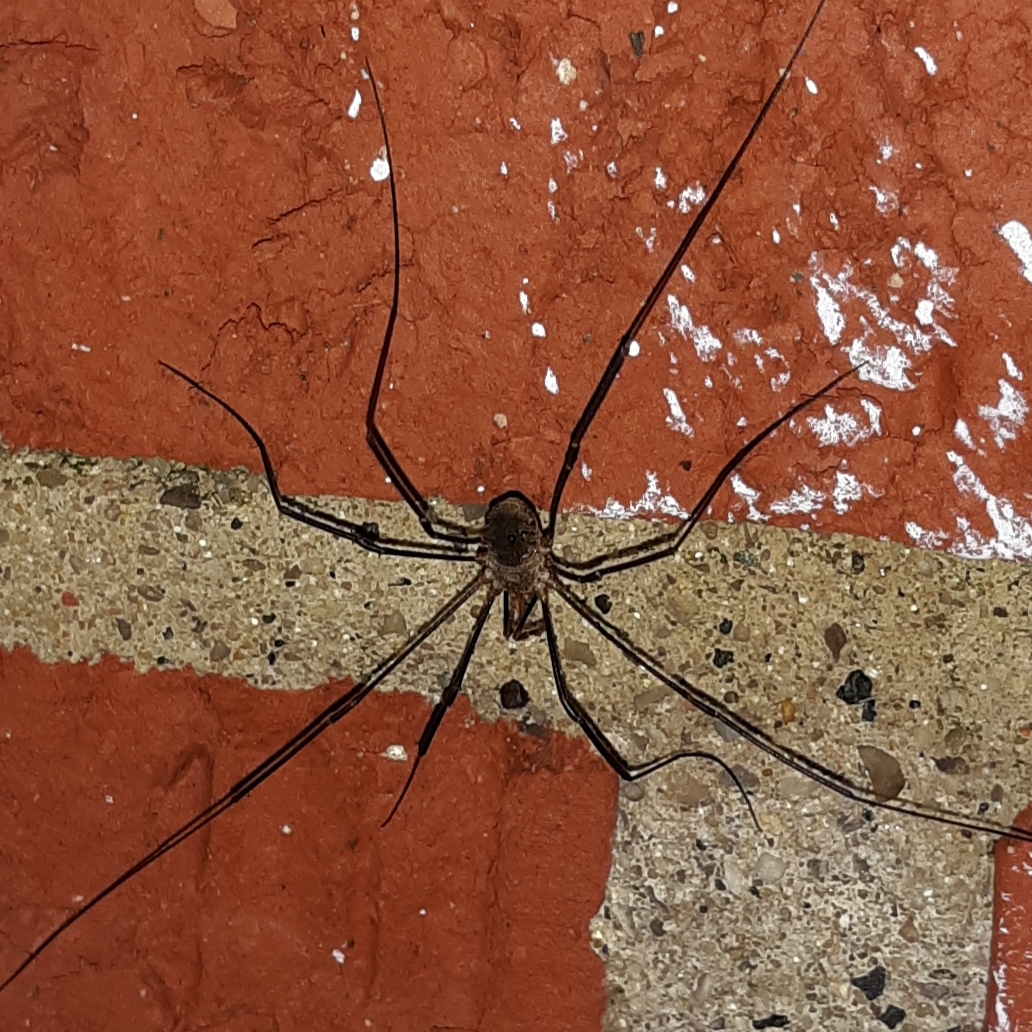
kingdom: Animalia
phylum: Arthropoda
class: Arachnida
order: Opiliones
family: Phalangiidae
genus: Phalangium
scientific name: Phalangium opilio
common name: Daddy longleg
